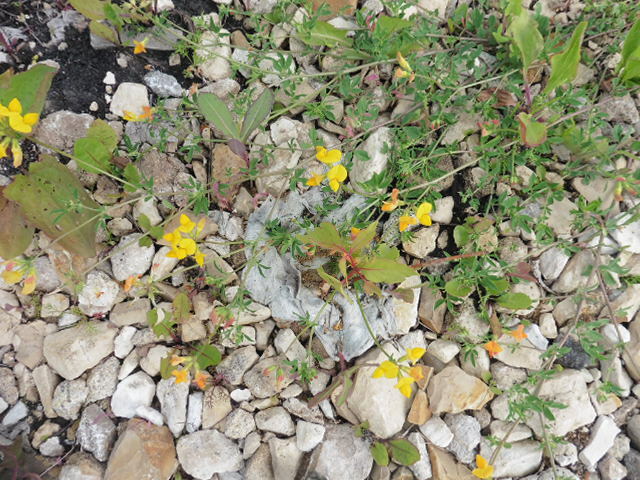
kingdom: Plantae
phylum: Tracheophyta
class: Magnoliopsida
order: Fabales
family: Fabaceae
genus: Lotus
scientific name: Lotus corniculatus
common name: Common bird's-foot-trefoil
